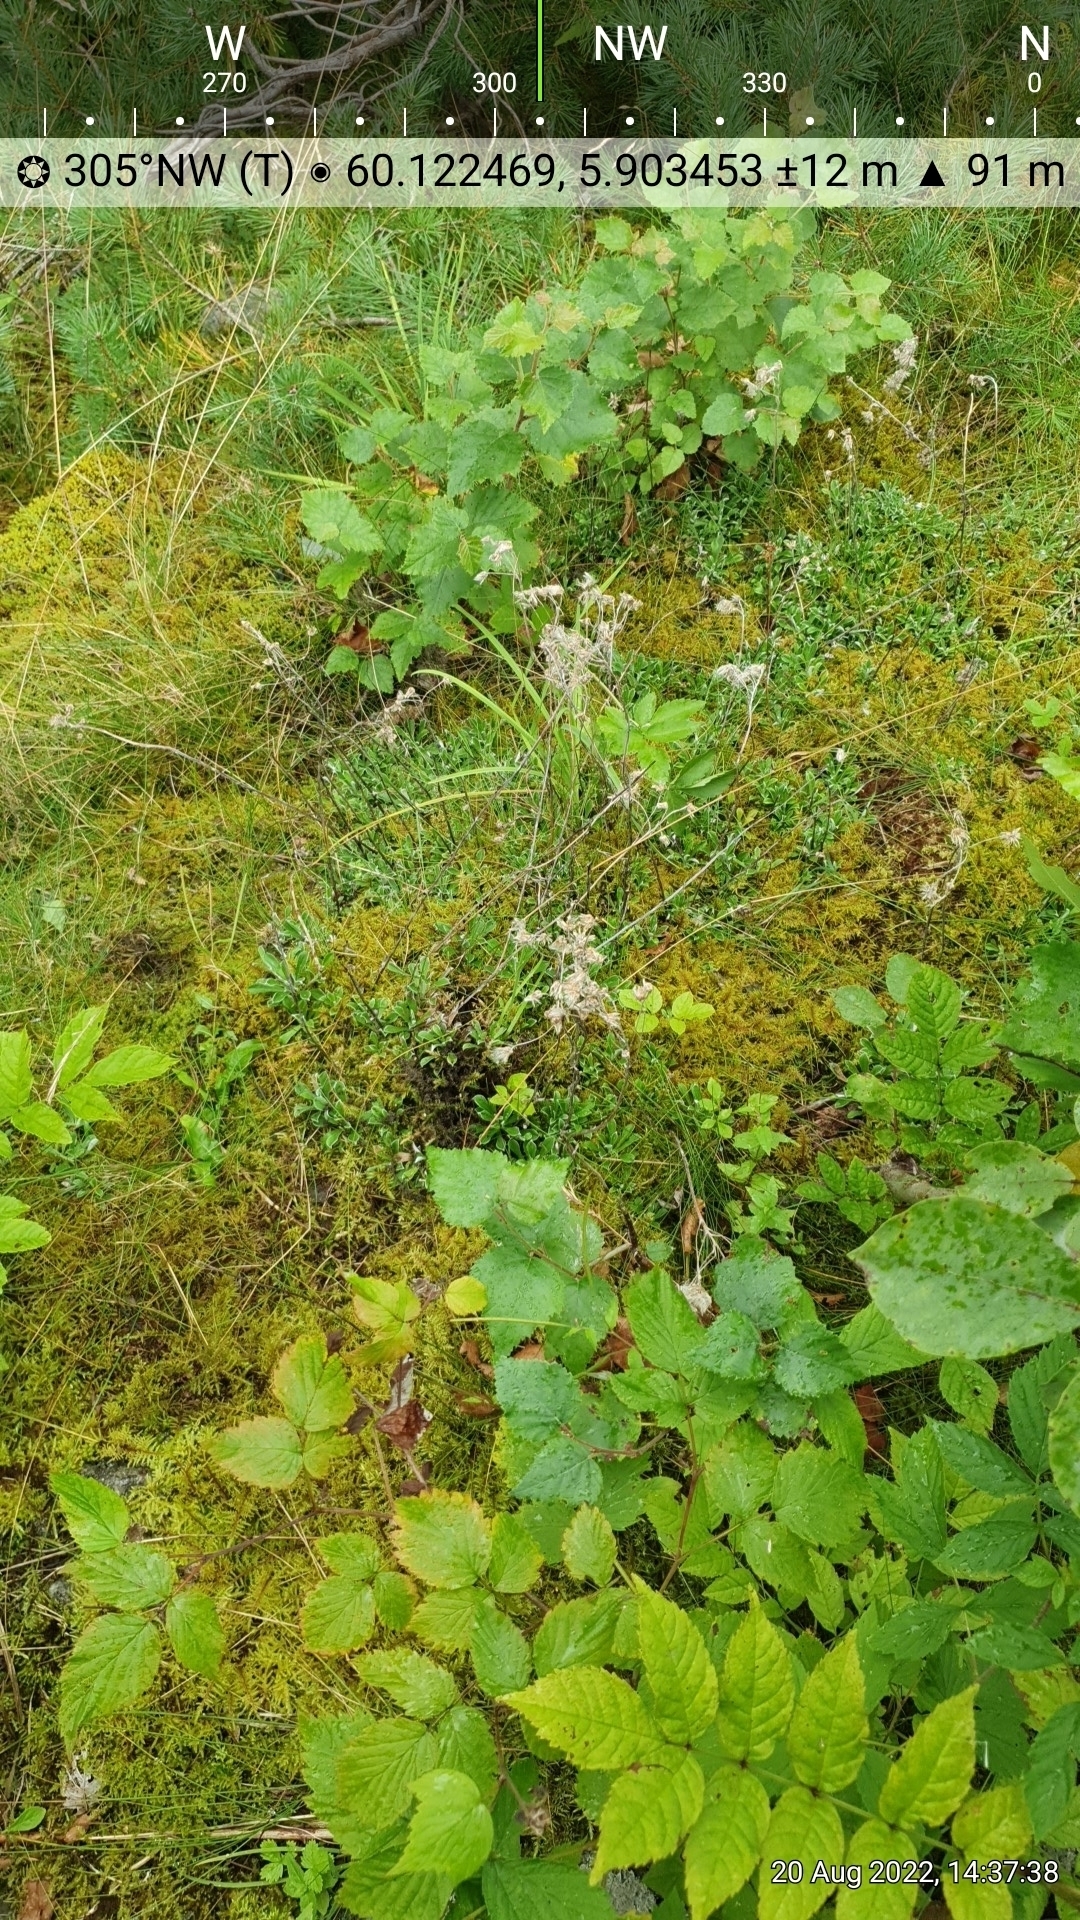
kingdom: Plantae
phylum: Tracheophyta
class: Magnoliopsida
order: Asterales
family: Asteraceae
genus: Antennaria
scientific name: Antennaria dioica
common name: Mountain everlasting
